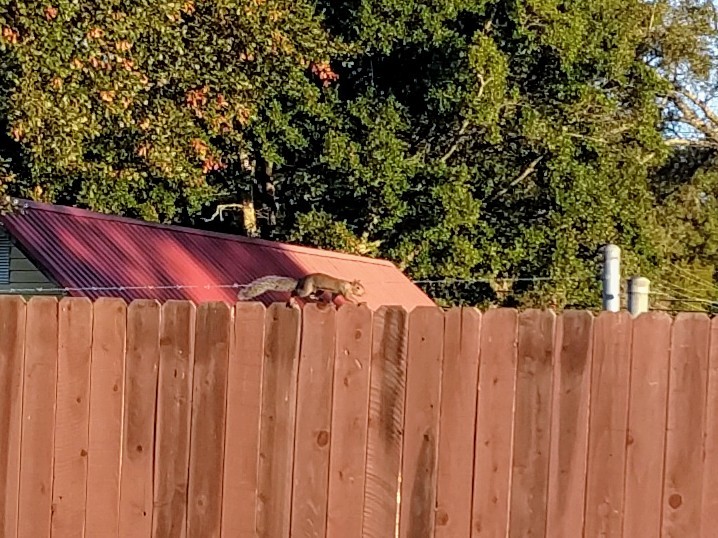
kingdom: Animalia
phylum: Chordata
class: Mammalia
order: Rodentia
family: Sciuridae
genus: Sciurus
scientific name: Sciurus carolinensis
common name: Eastern gray squirrel
